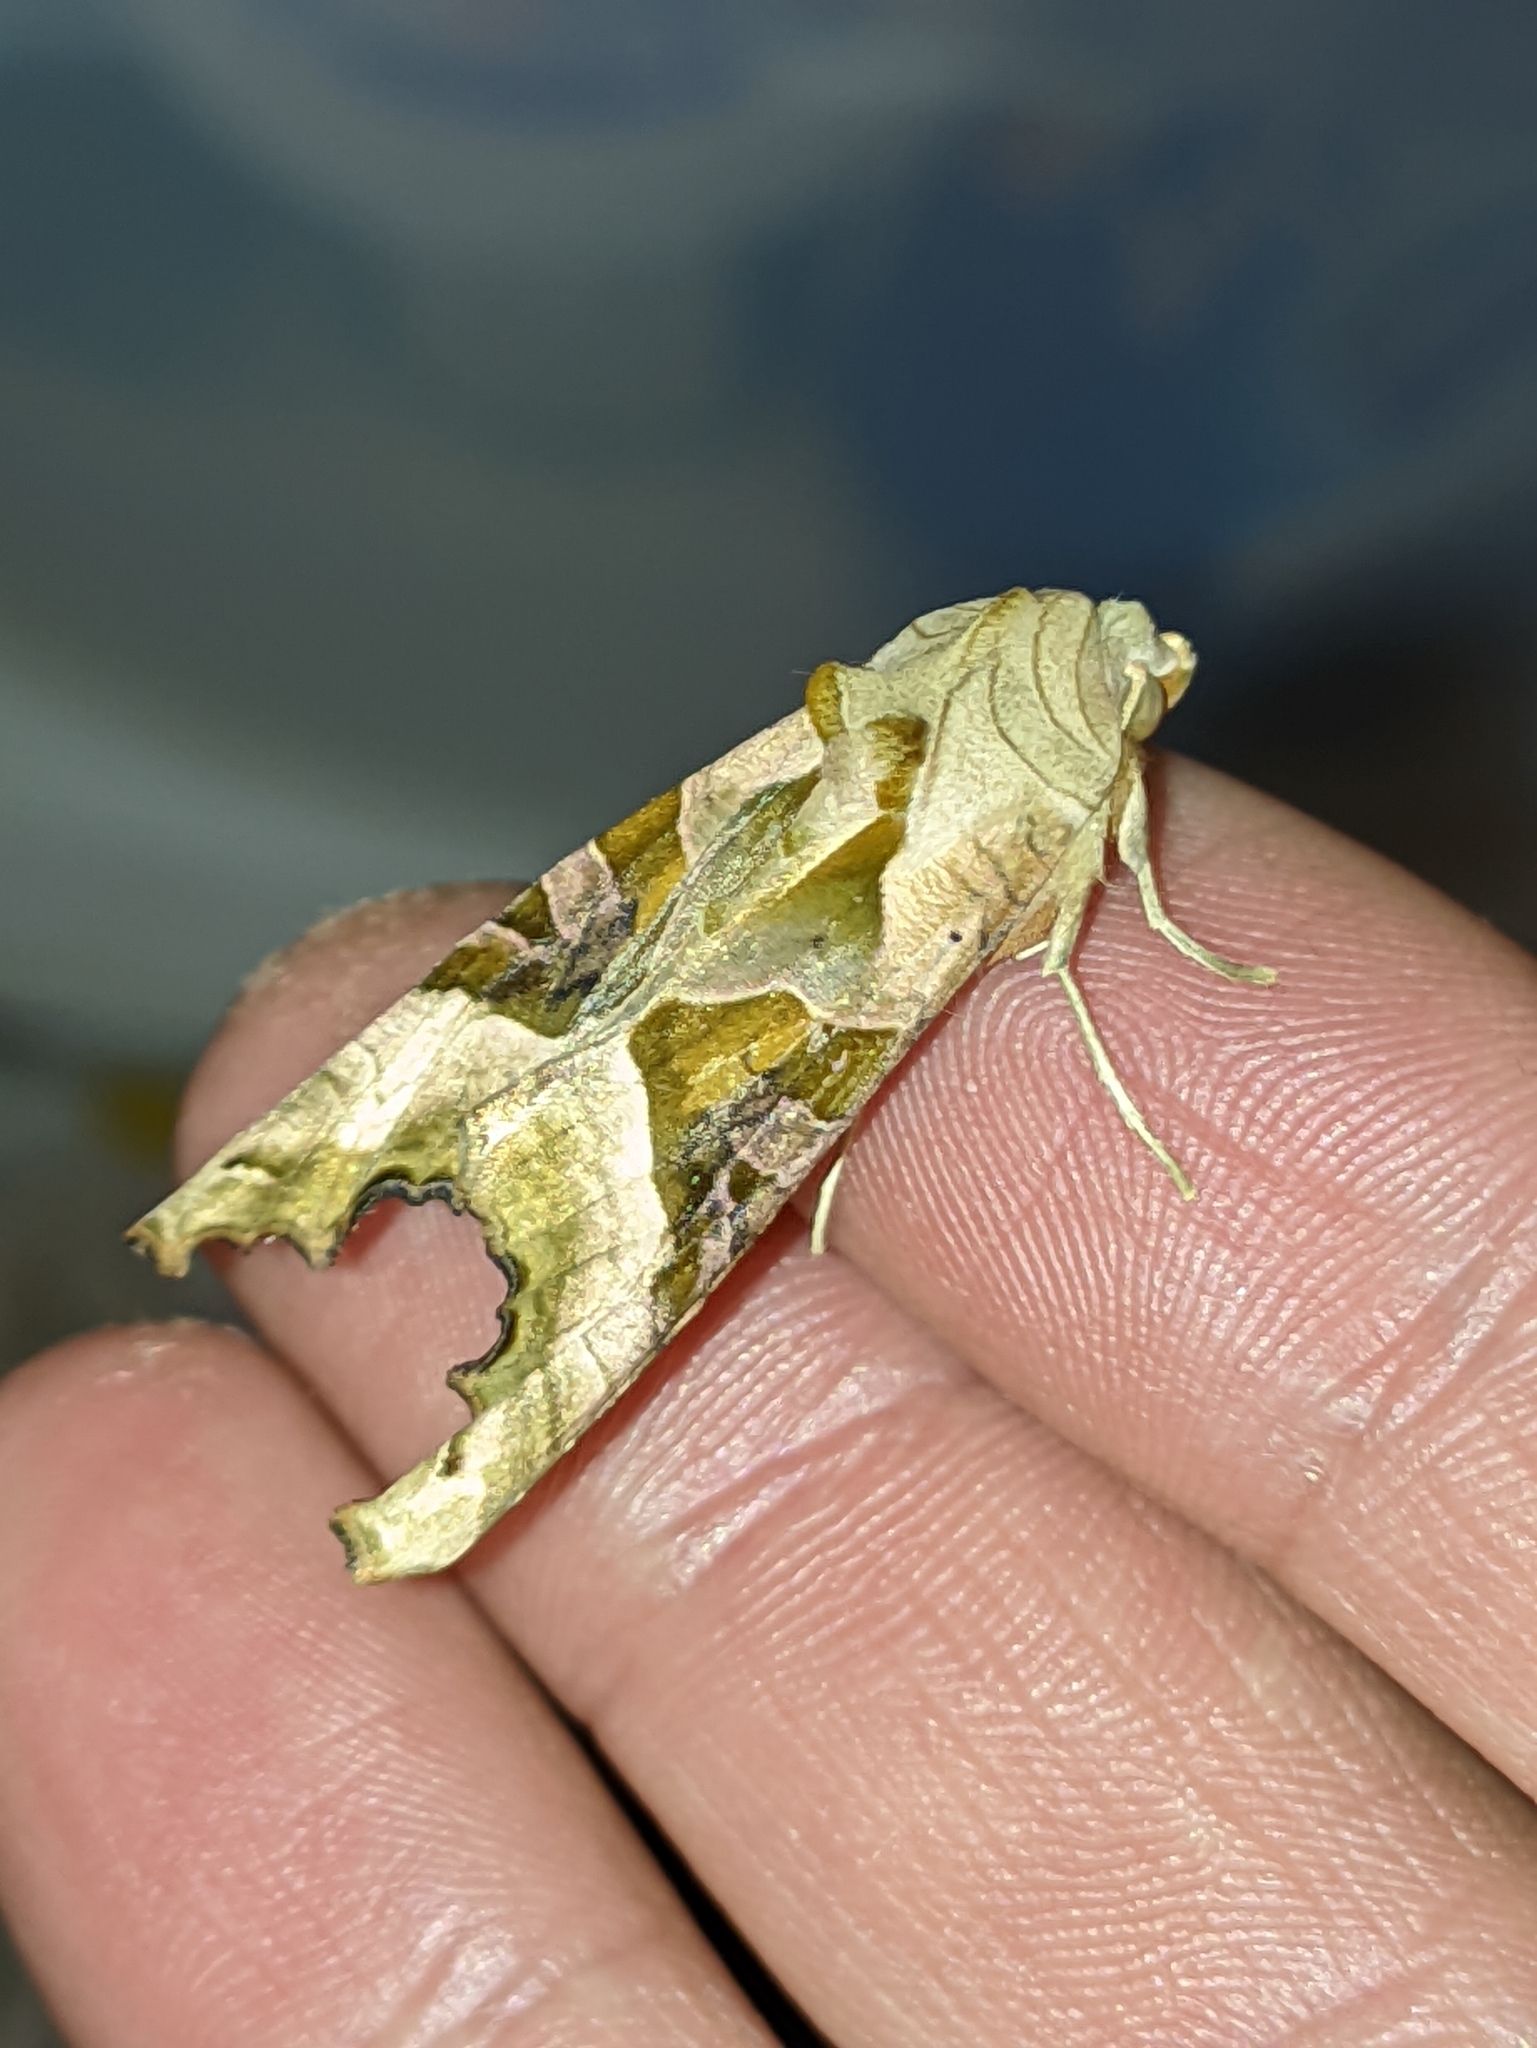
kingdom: Animalia
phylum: Arthropoda
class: Insecta
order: Lepidoptera
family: Noctuidae
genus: Phlogophora
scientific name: Phlogophora meticulosa
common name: Angle shades
